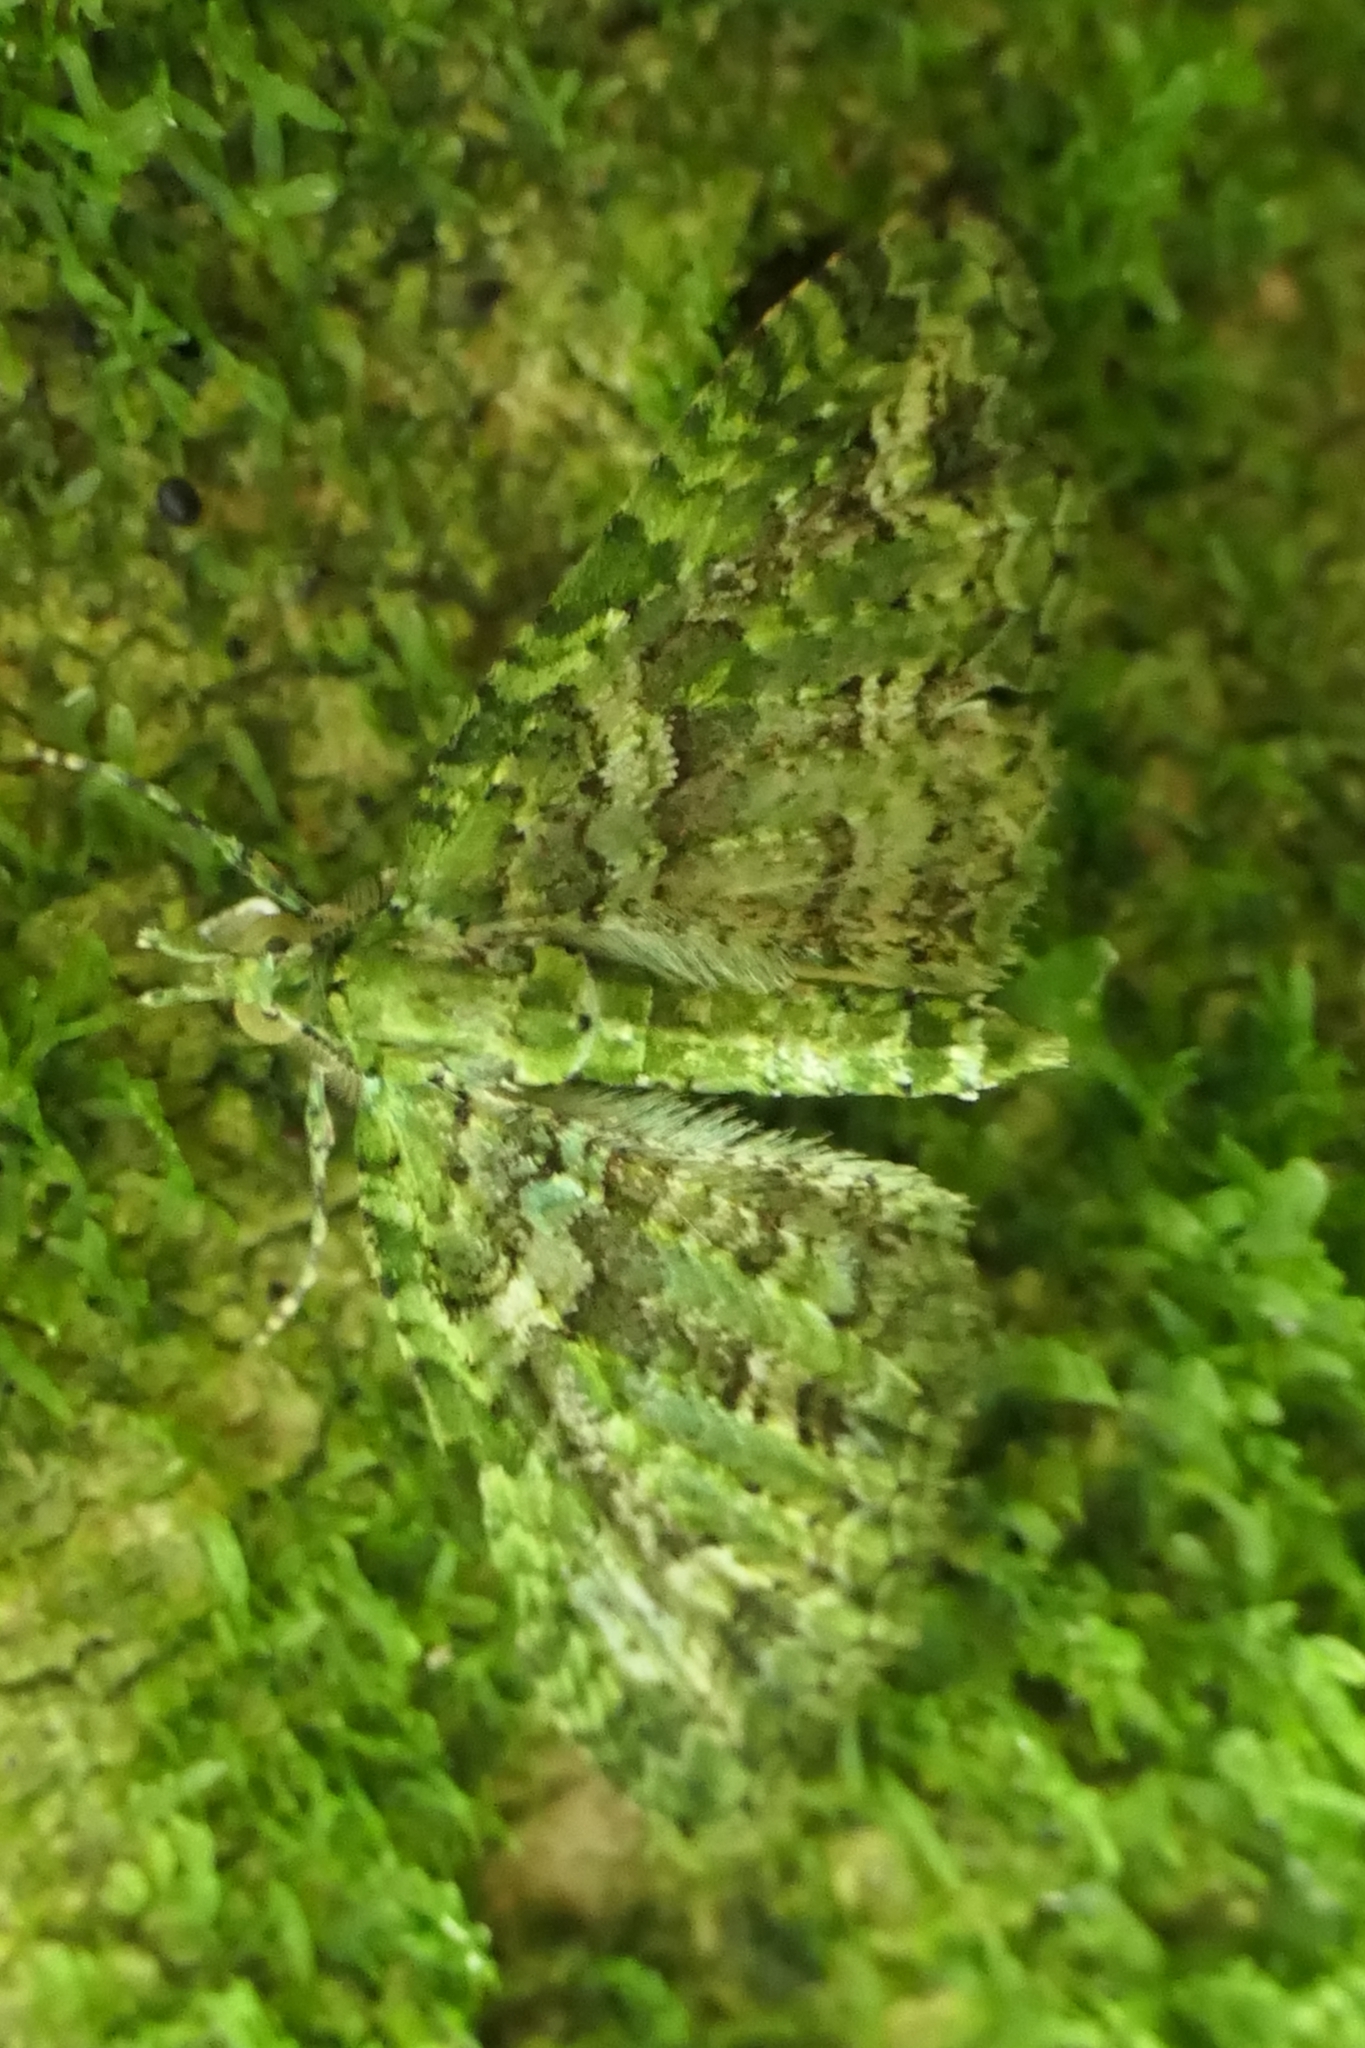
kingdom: Animalia
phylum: Arthropoda
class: Insecta
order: Lepidoptera
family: Geometridae
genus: Pasiphila
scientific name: Pasiphila muscosata
